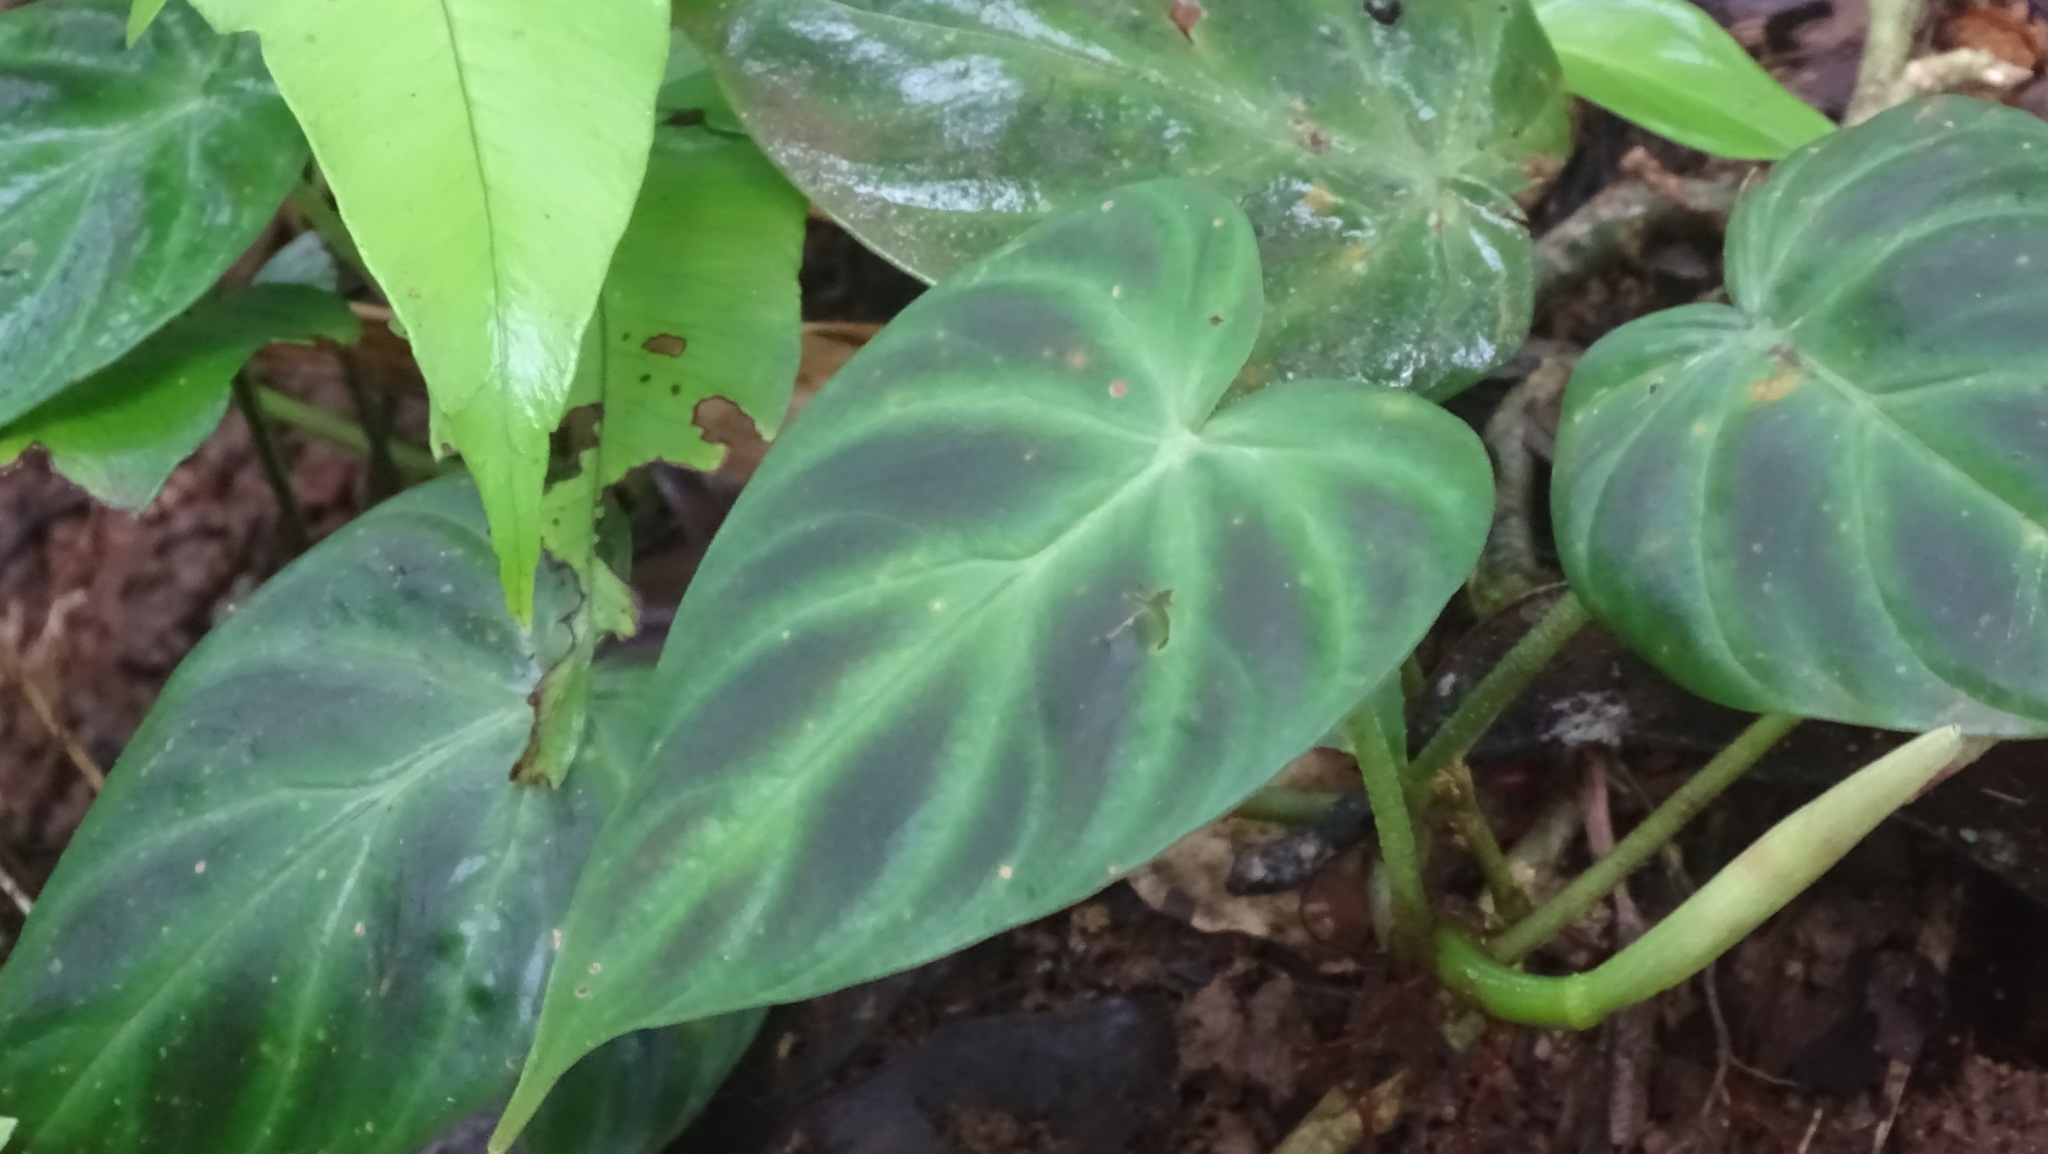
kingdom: Plantae
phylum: Tracheophyta
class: Liliopsida
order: Alismatales
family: Araceae
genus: Philodendron
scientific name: Philodendron verrucosum
